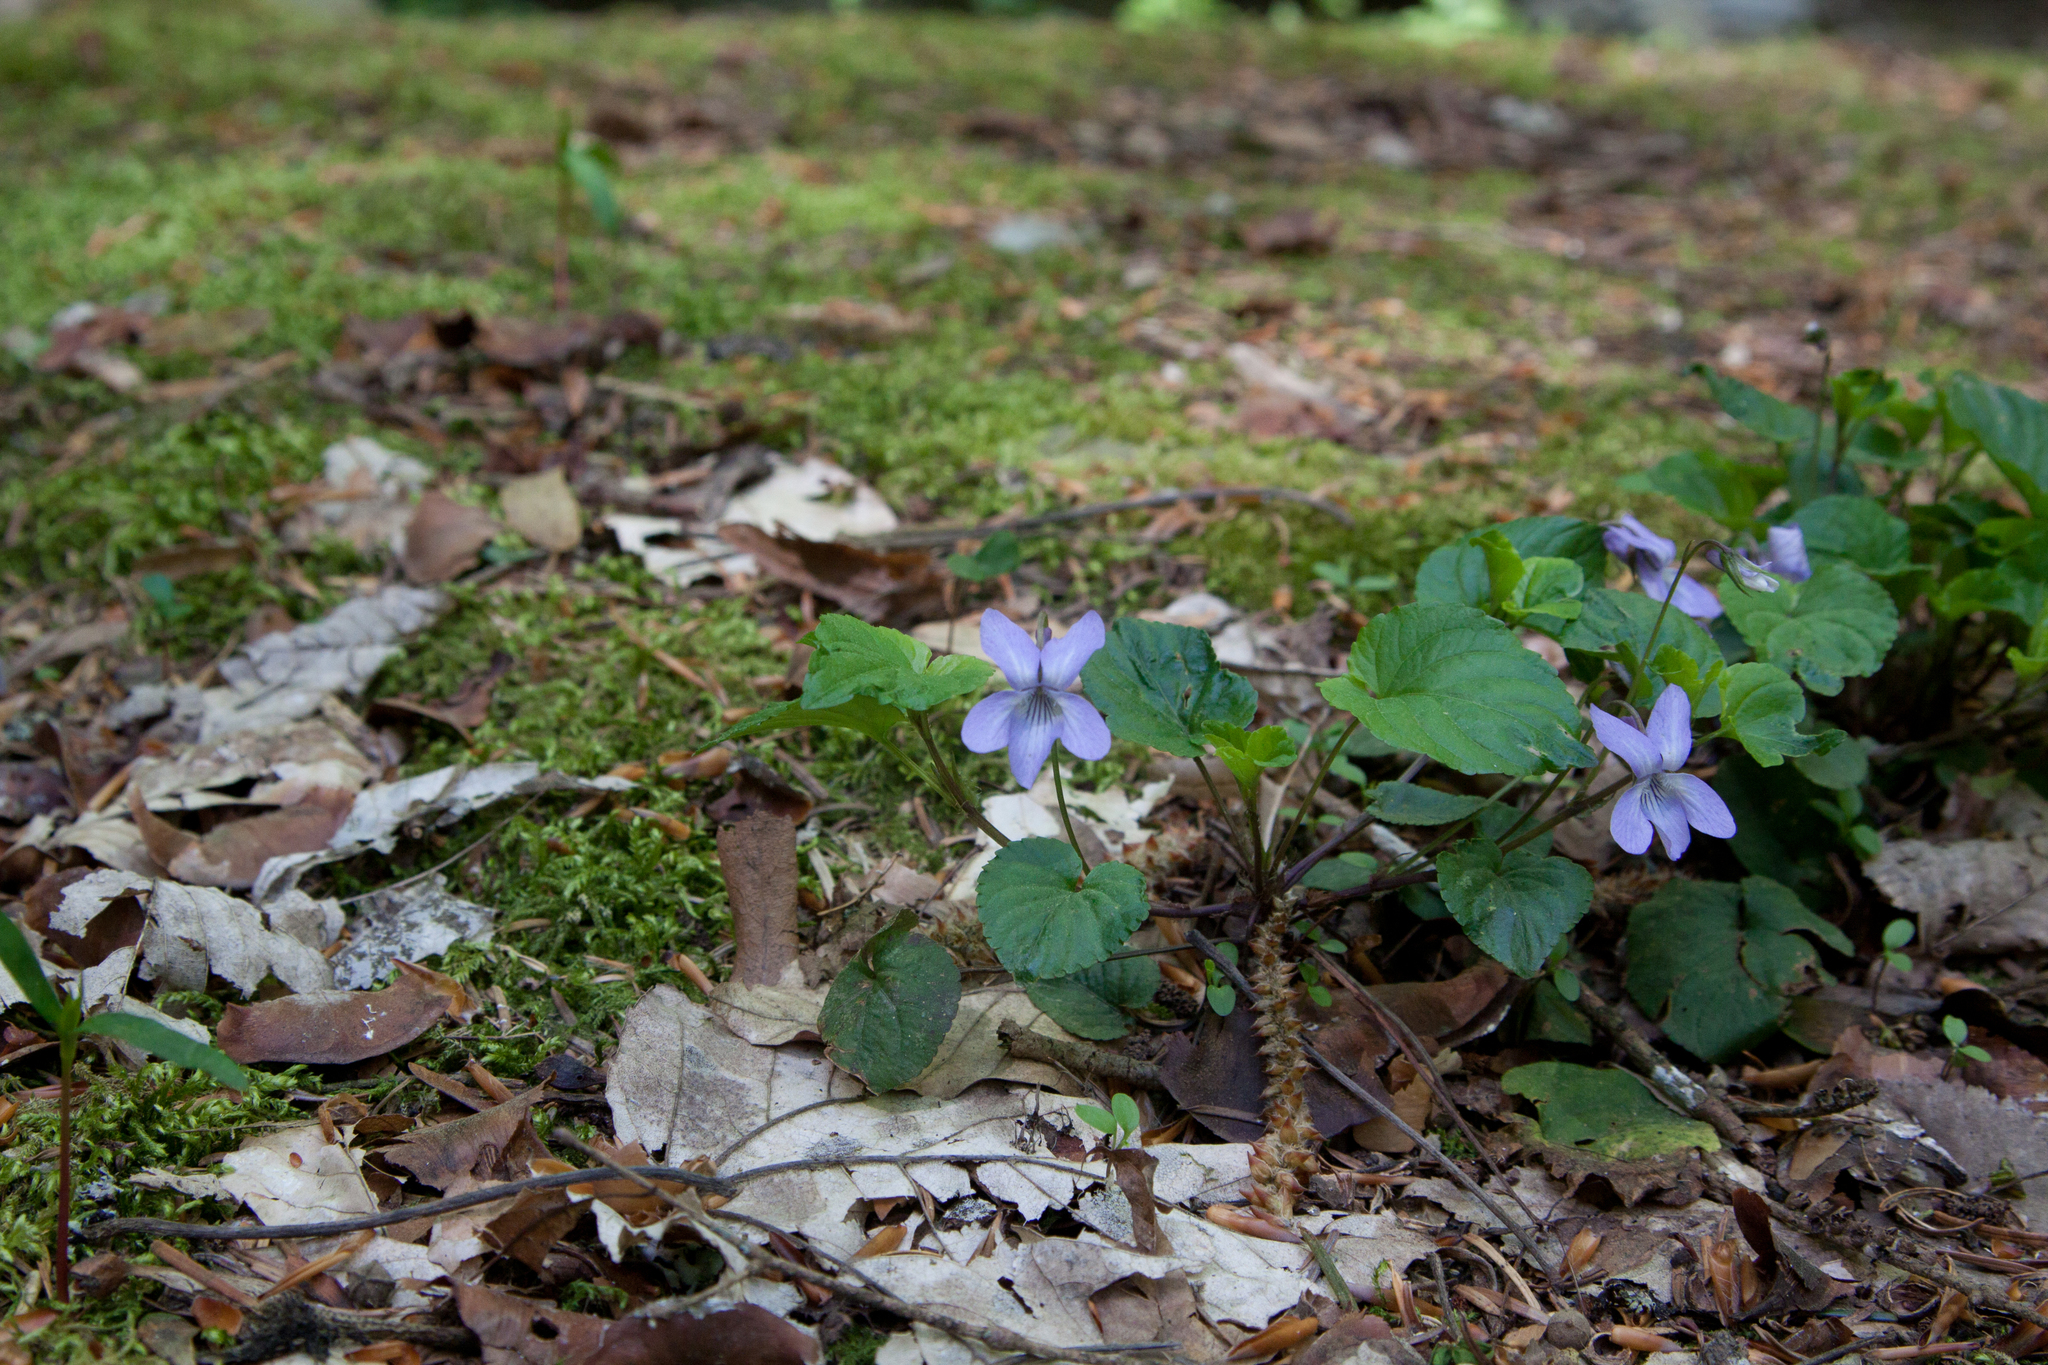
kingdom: Plantae
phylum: Tracheophyta
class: Magnoliopsida
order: Malpighiales
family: Violaceae
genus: Viola
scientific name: Viola reichenbachiana
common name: Early dog-violet
